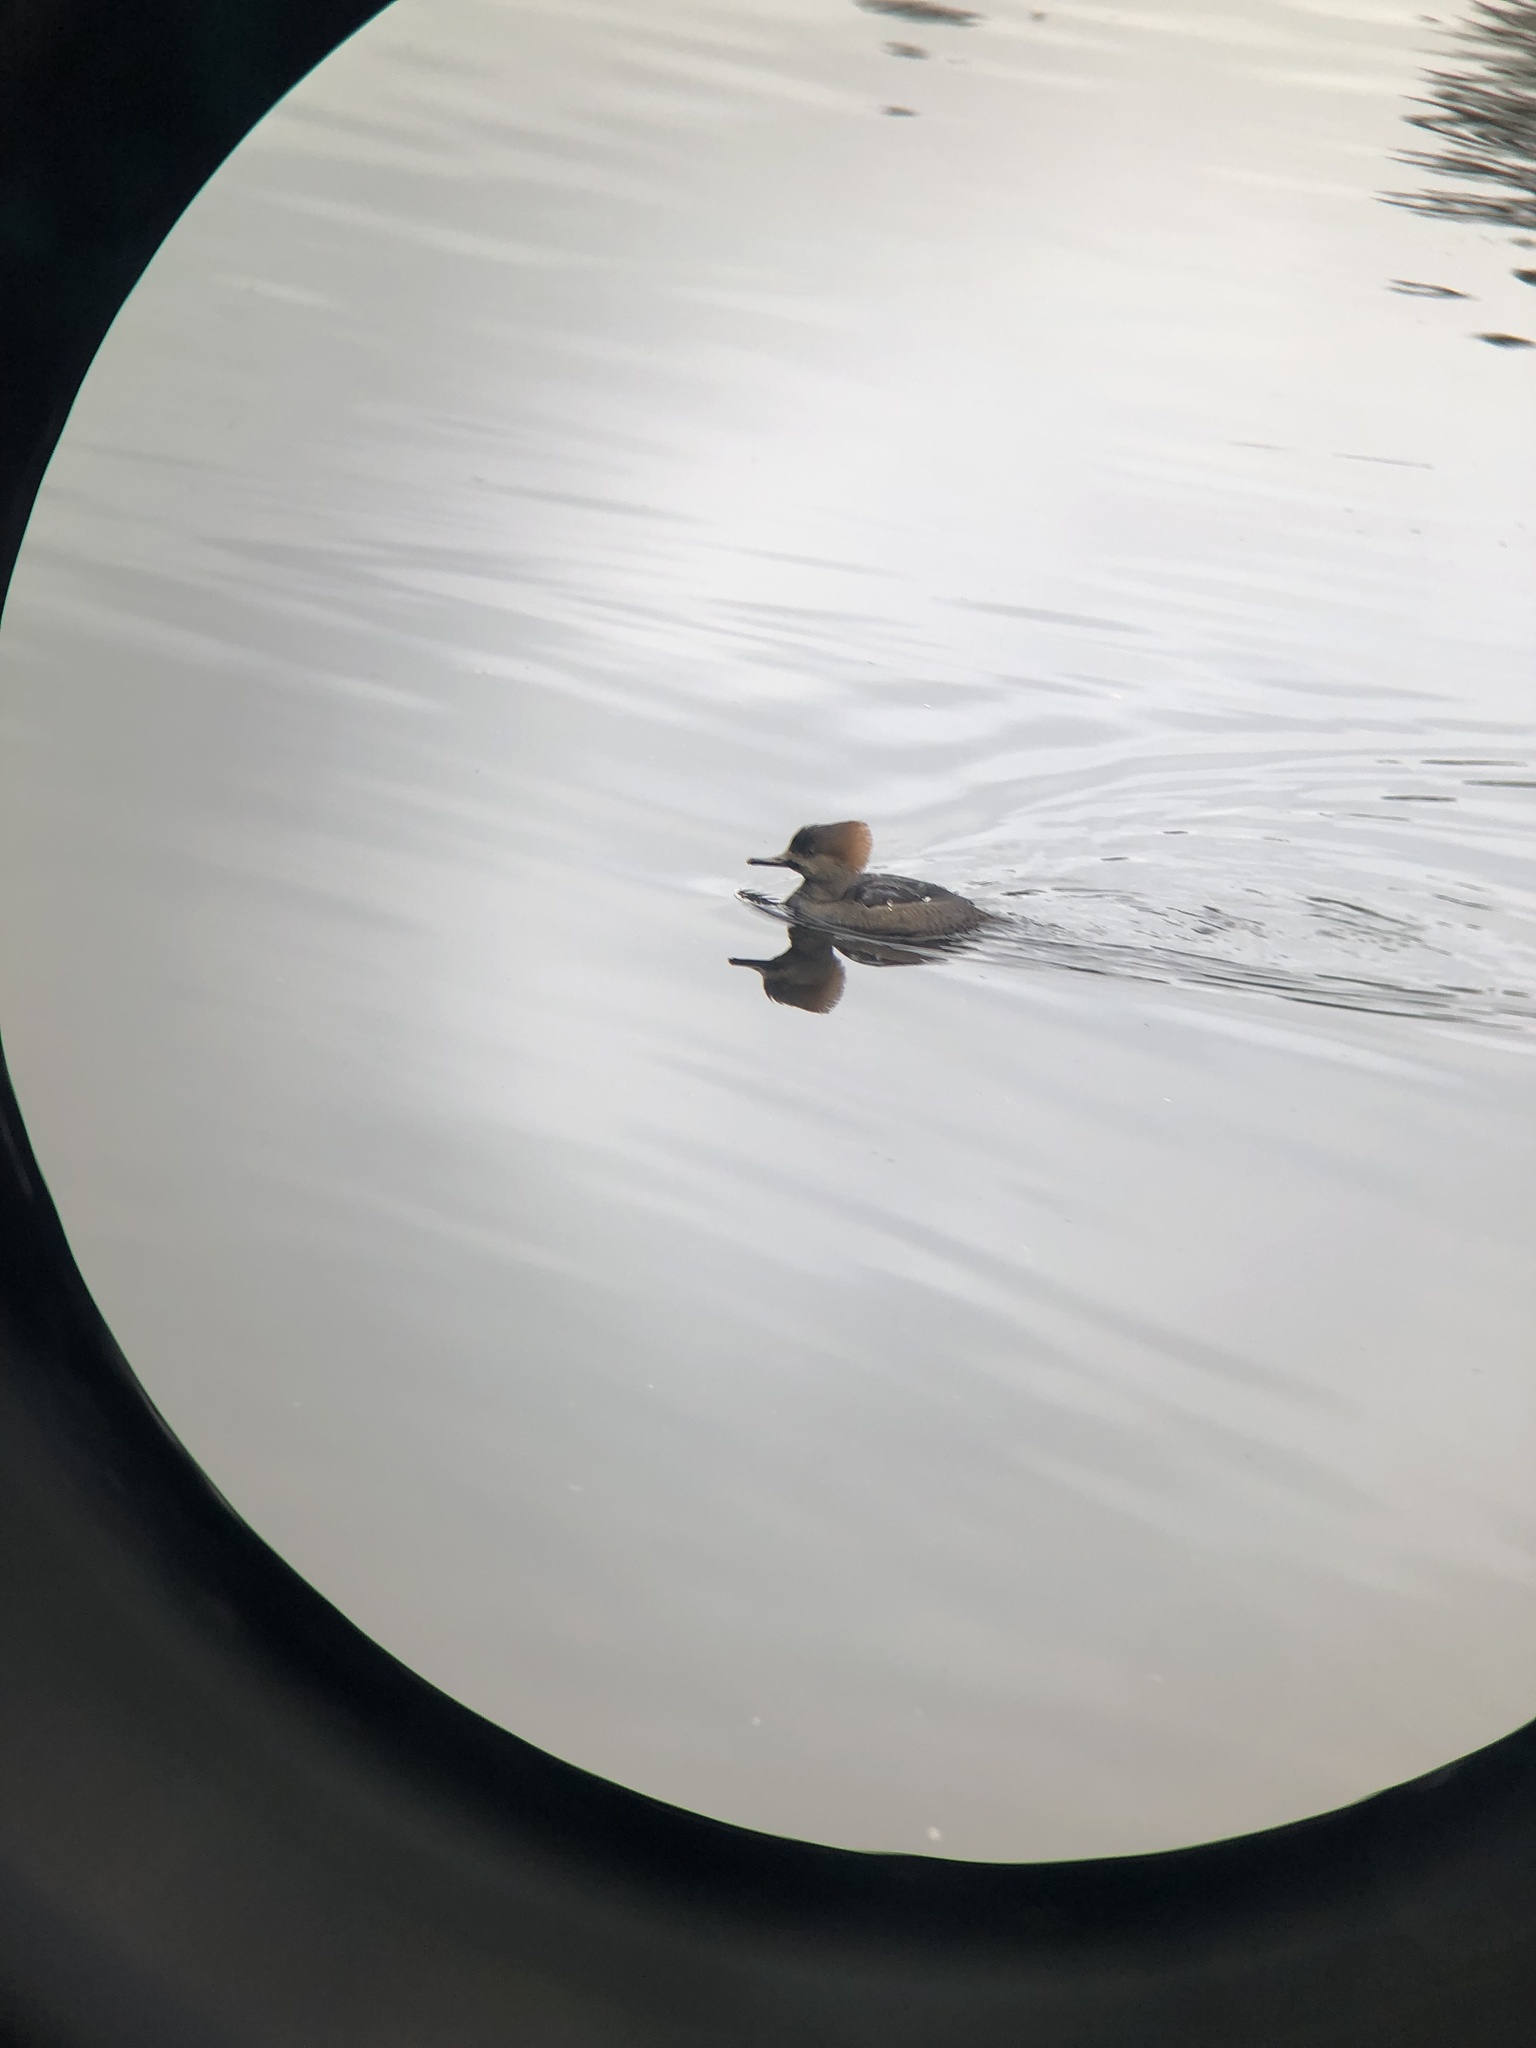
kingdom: Animalia
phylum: Chordata
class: Aves
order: Anseriformes
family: Anatidae
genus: Lophodytes
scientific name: Lophodytes cucullatus
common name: Hooded merganser
